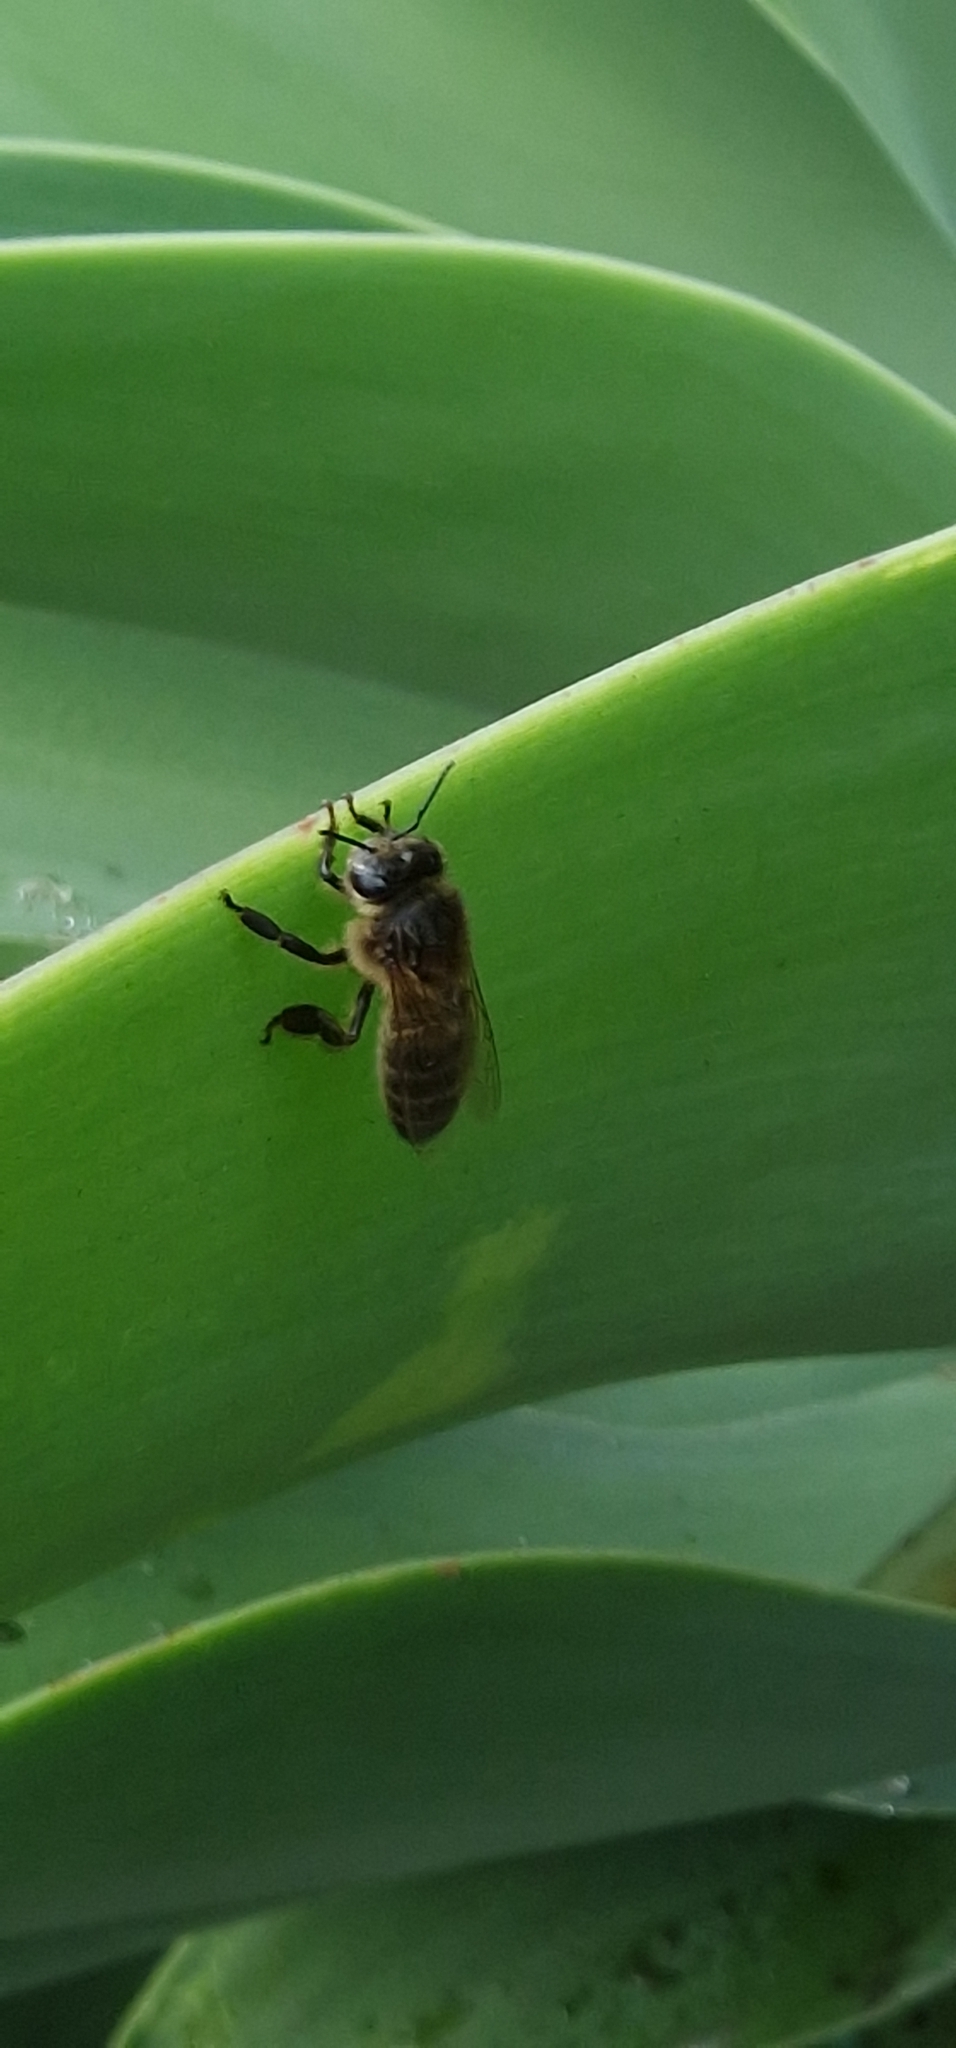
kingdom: Animalia
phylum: Arthropoda
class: Insecta
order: Hymenoptera
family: Apidae
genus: Apis
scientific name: Apis mellifera
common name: Honey bee
